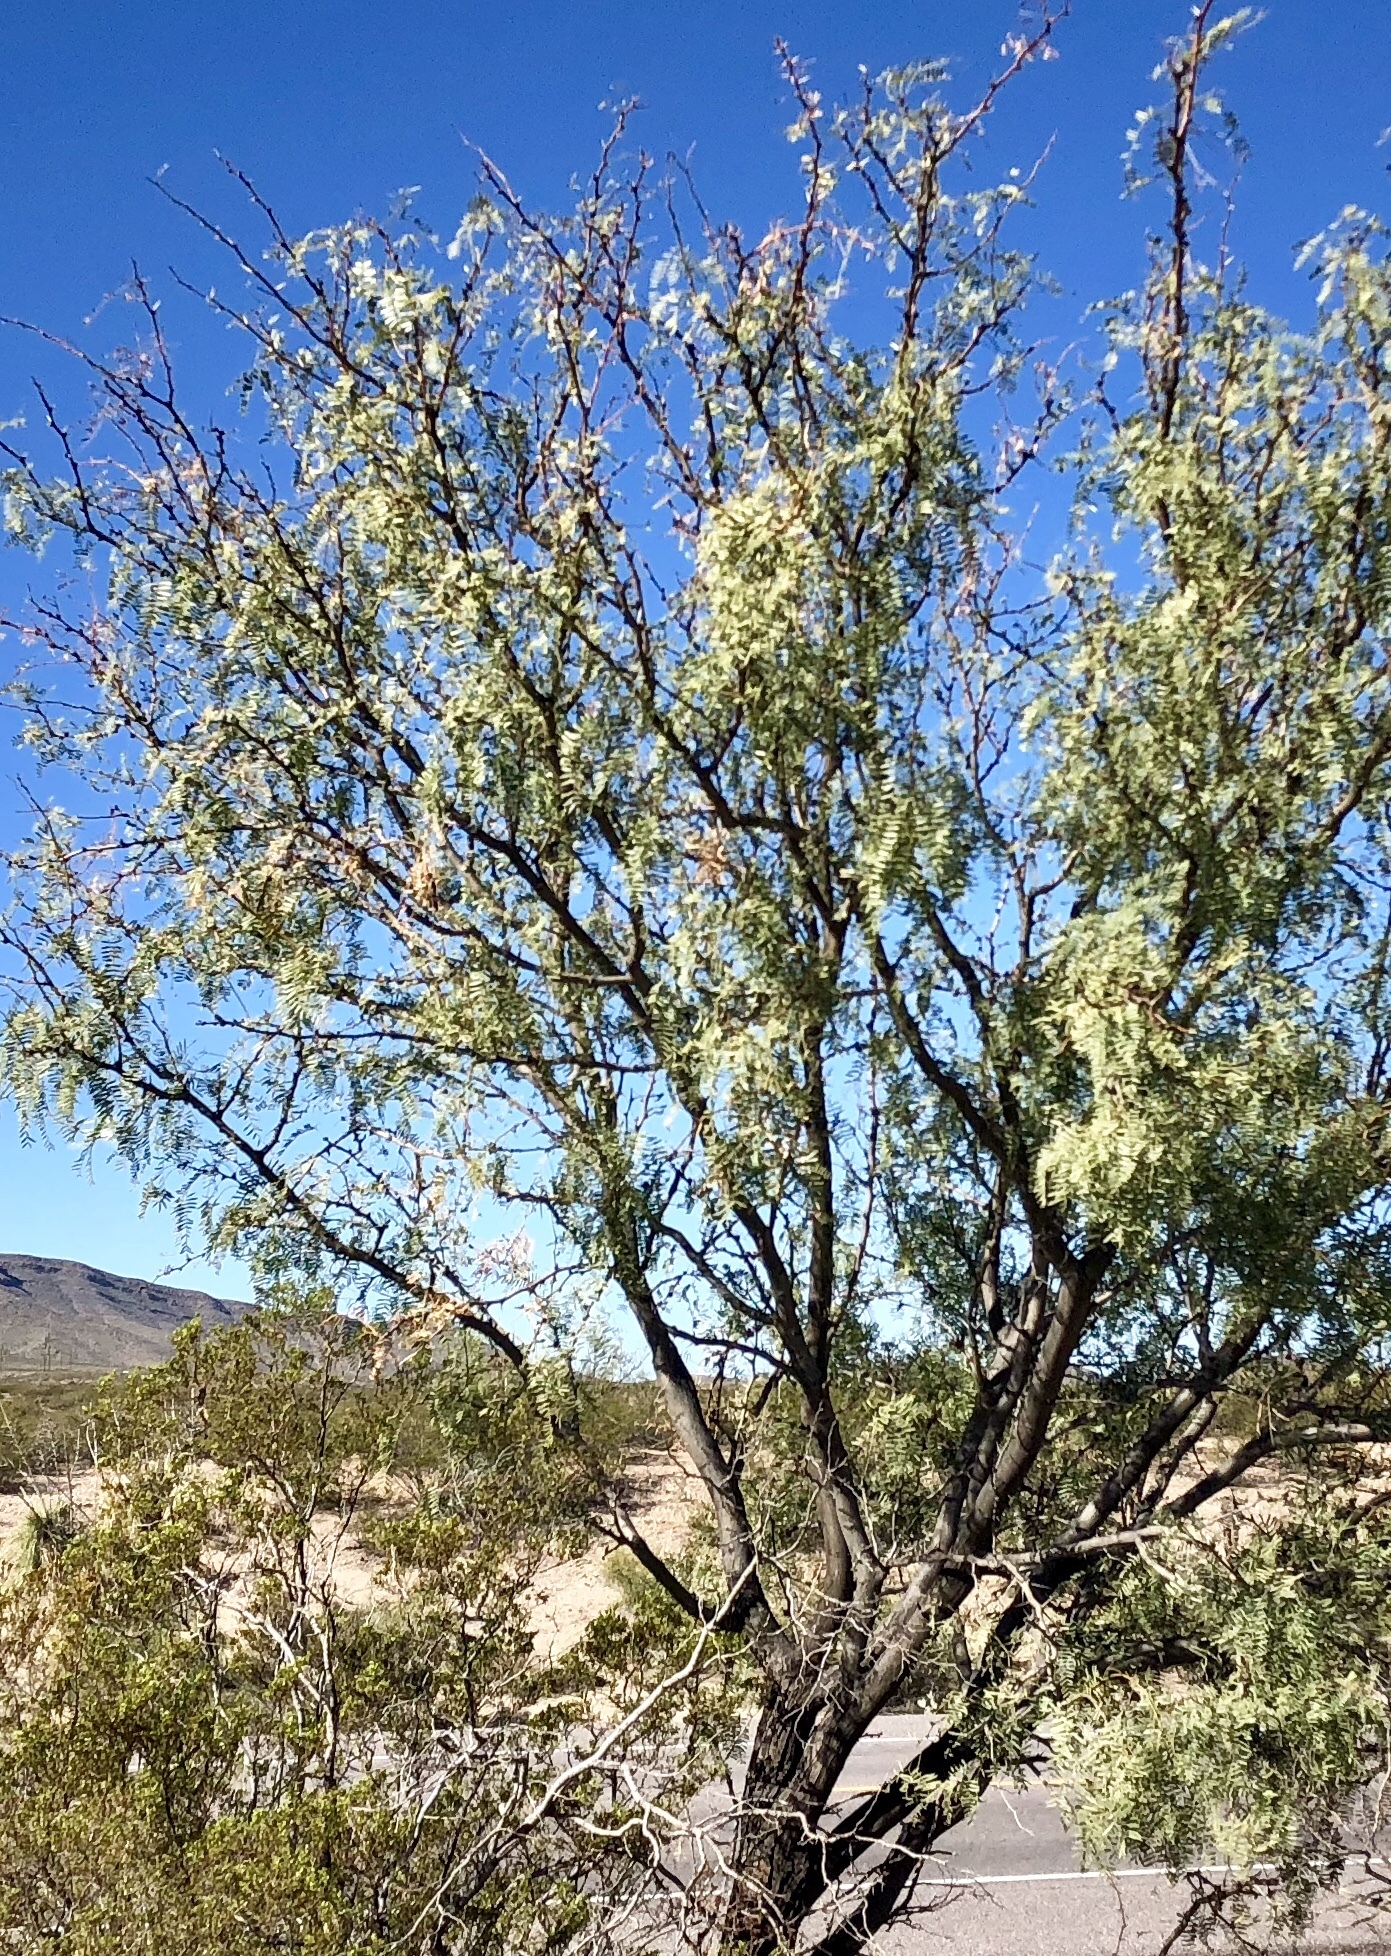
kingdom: Plantae
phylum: Tracheophyta
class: Magnoliopsida
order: Fabales
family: Fabaceae
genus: Prosopis
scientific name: Prosopis glandulosa
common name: Honey mesquite
